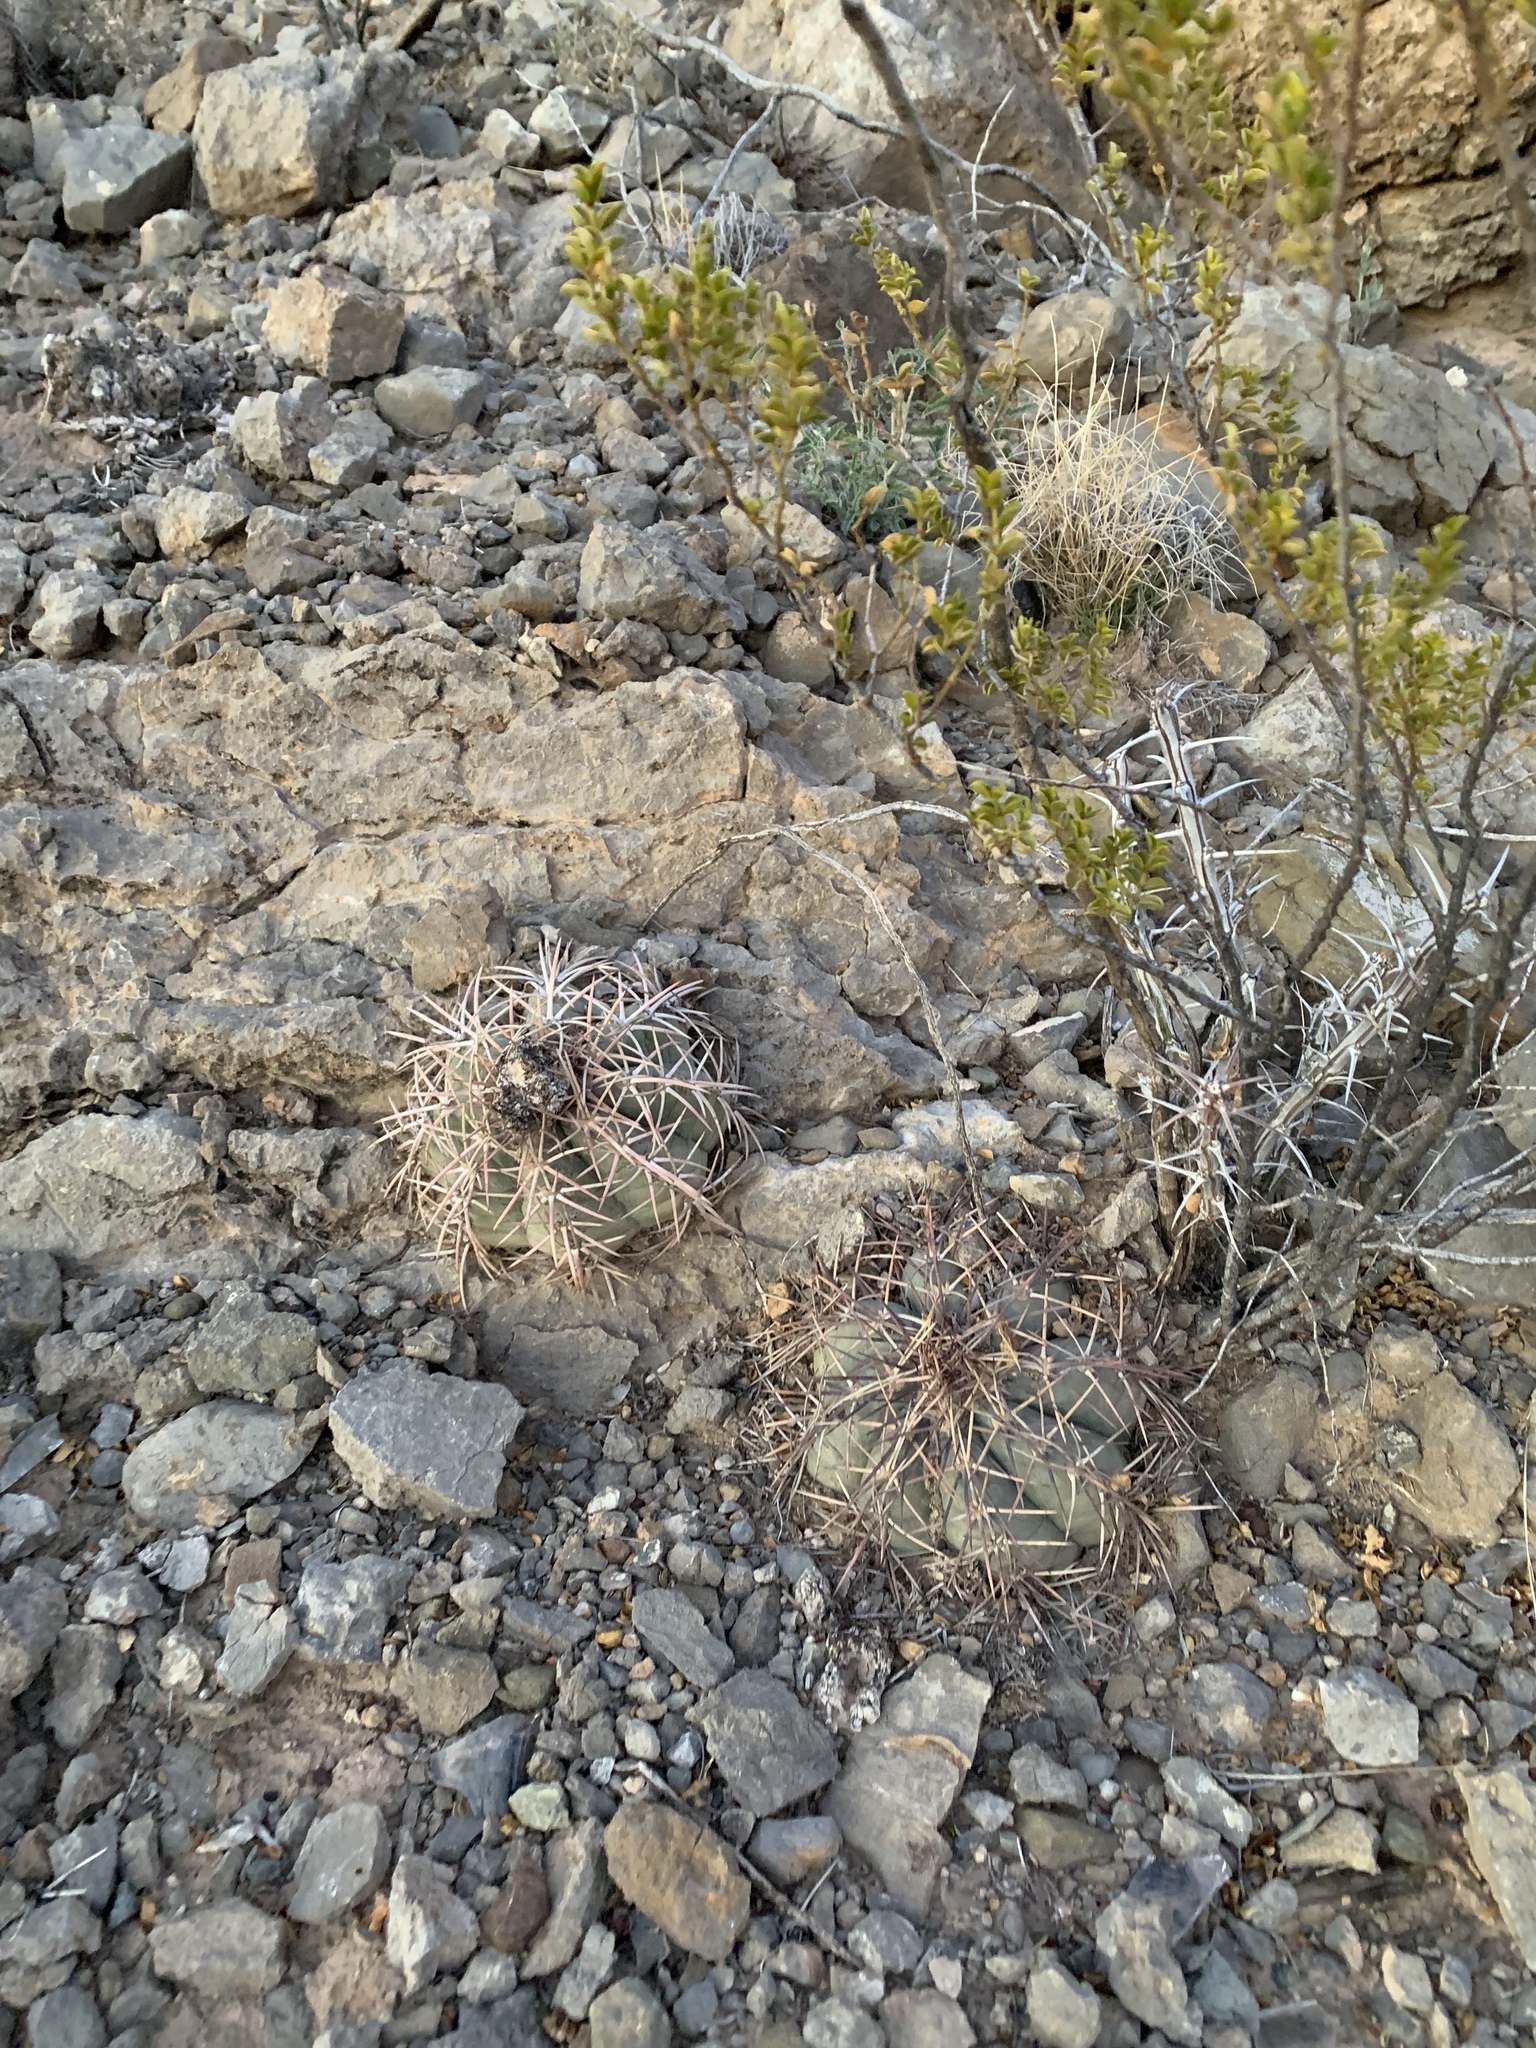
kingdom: Plantae
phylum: Tracheophyta
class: Magnoliopsida
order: Caryophyllales
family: Cactaceae
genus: Echinocactus
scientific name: Echinocactus horizonthalonius
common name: Devilshead
